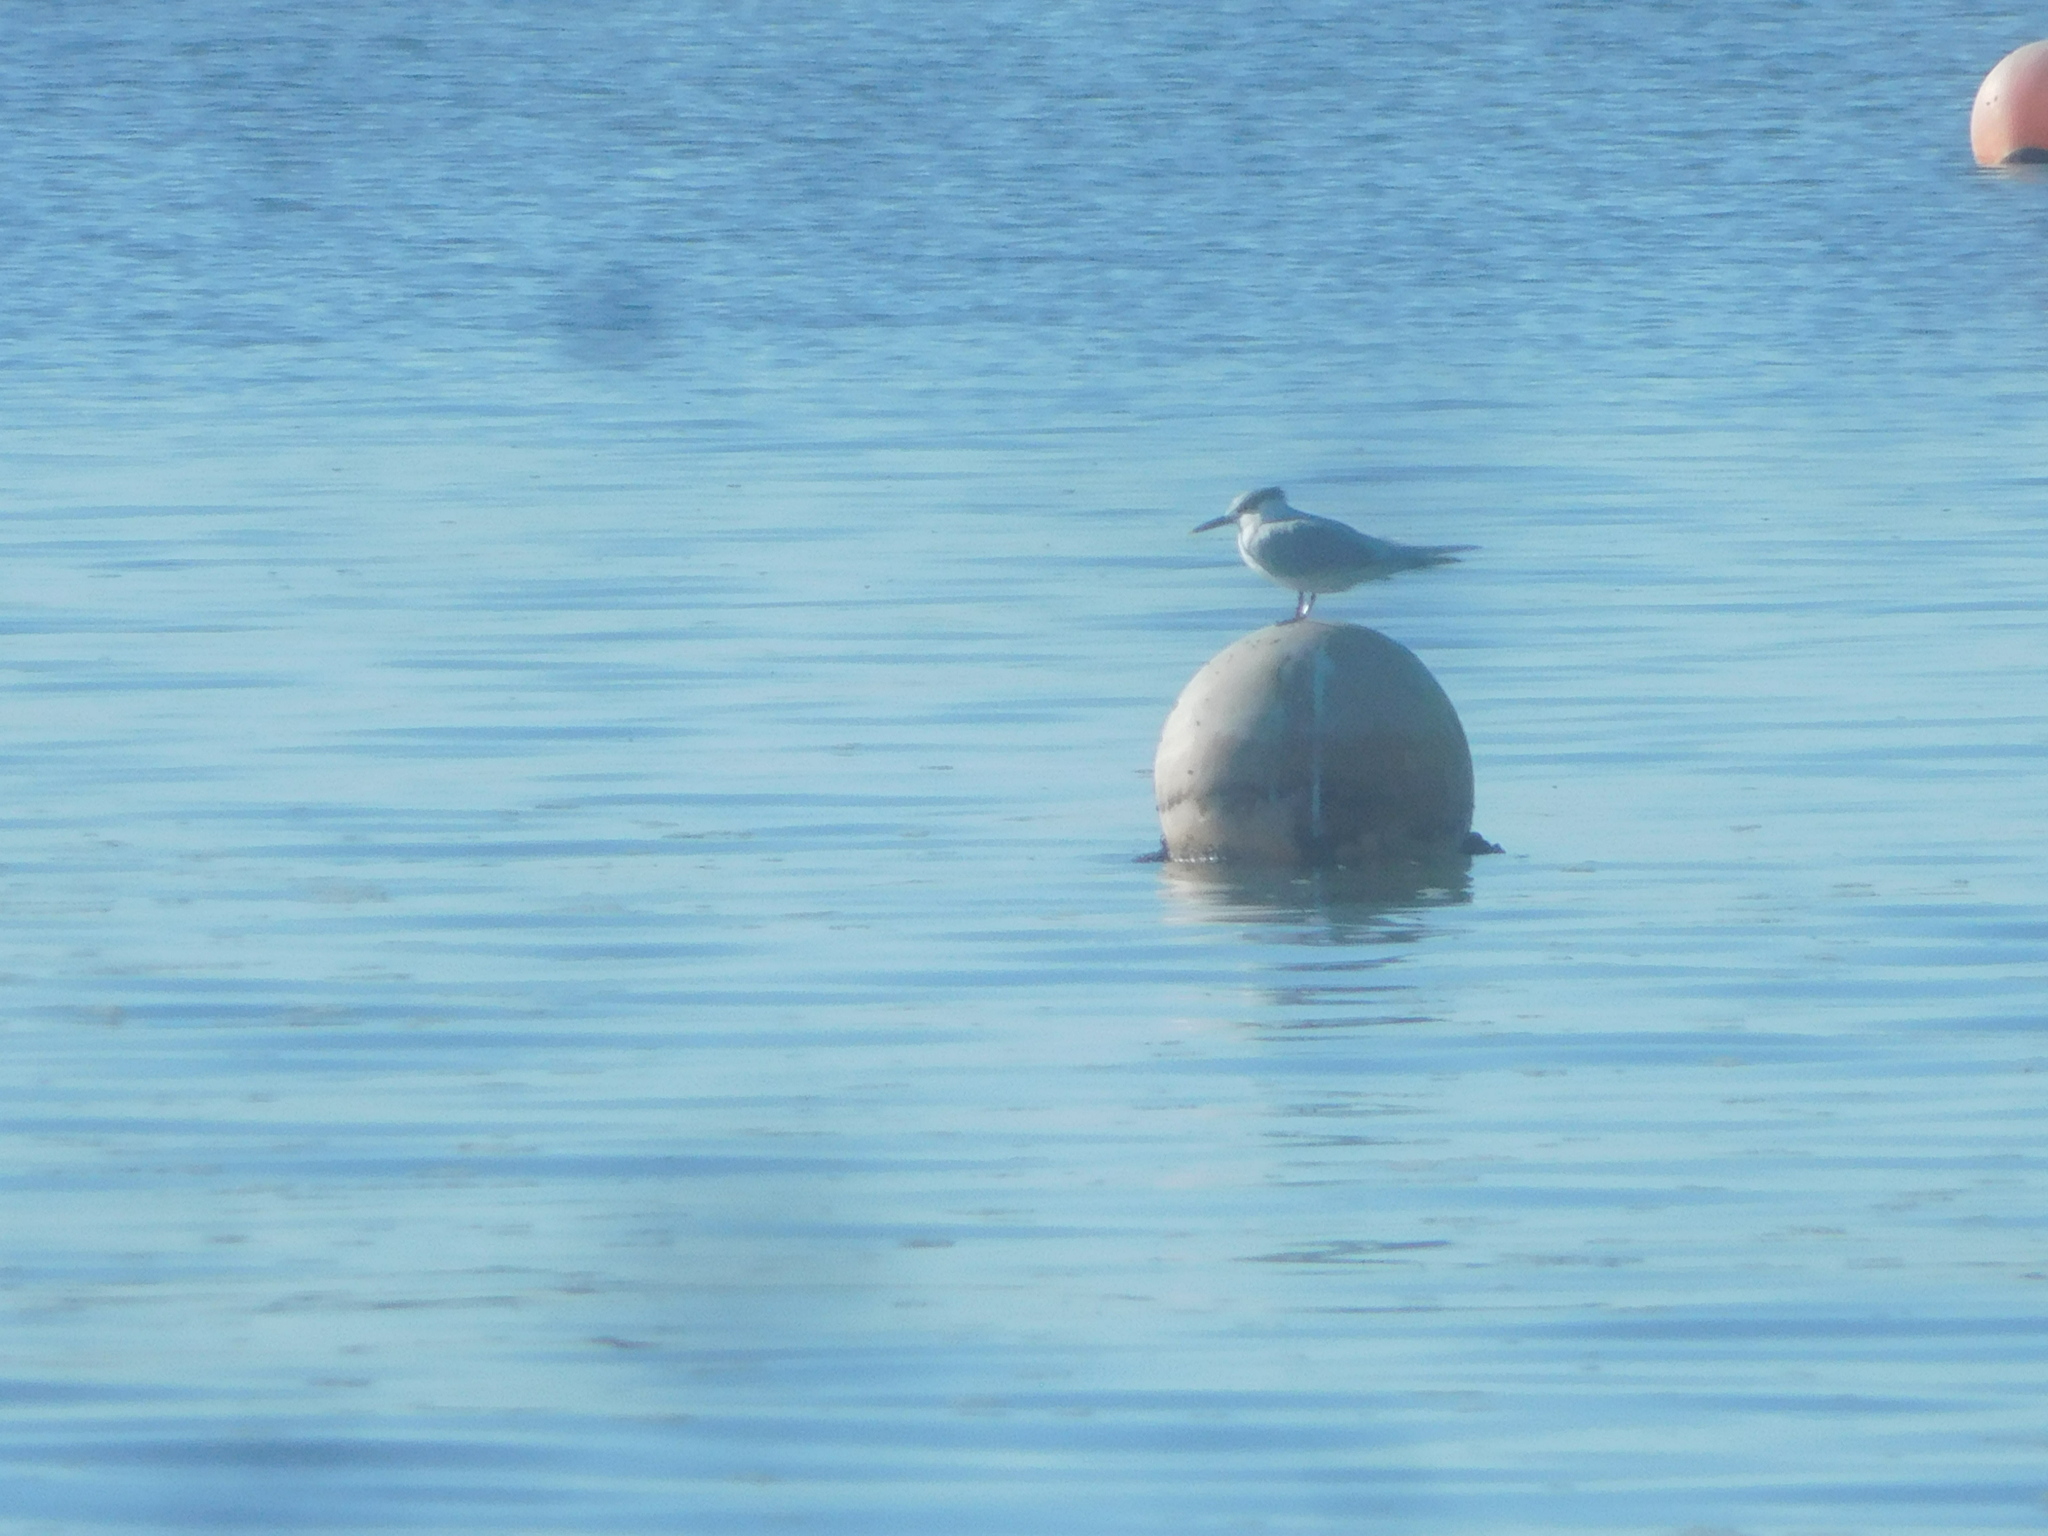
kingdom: Animalia
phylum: Chordata
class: Aves
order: Charadriiformes
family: Laridae
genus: Thalasseus
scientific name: Thalasseus sandvicensis
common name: Sandwich tern
